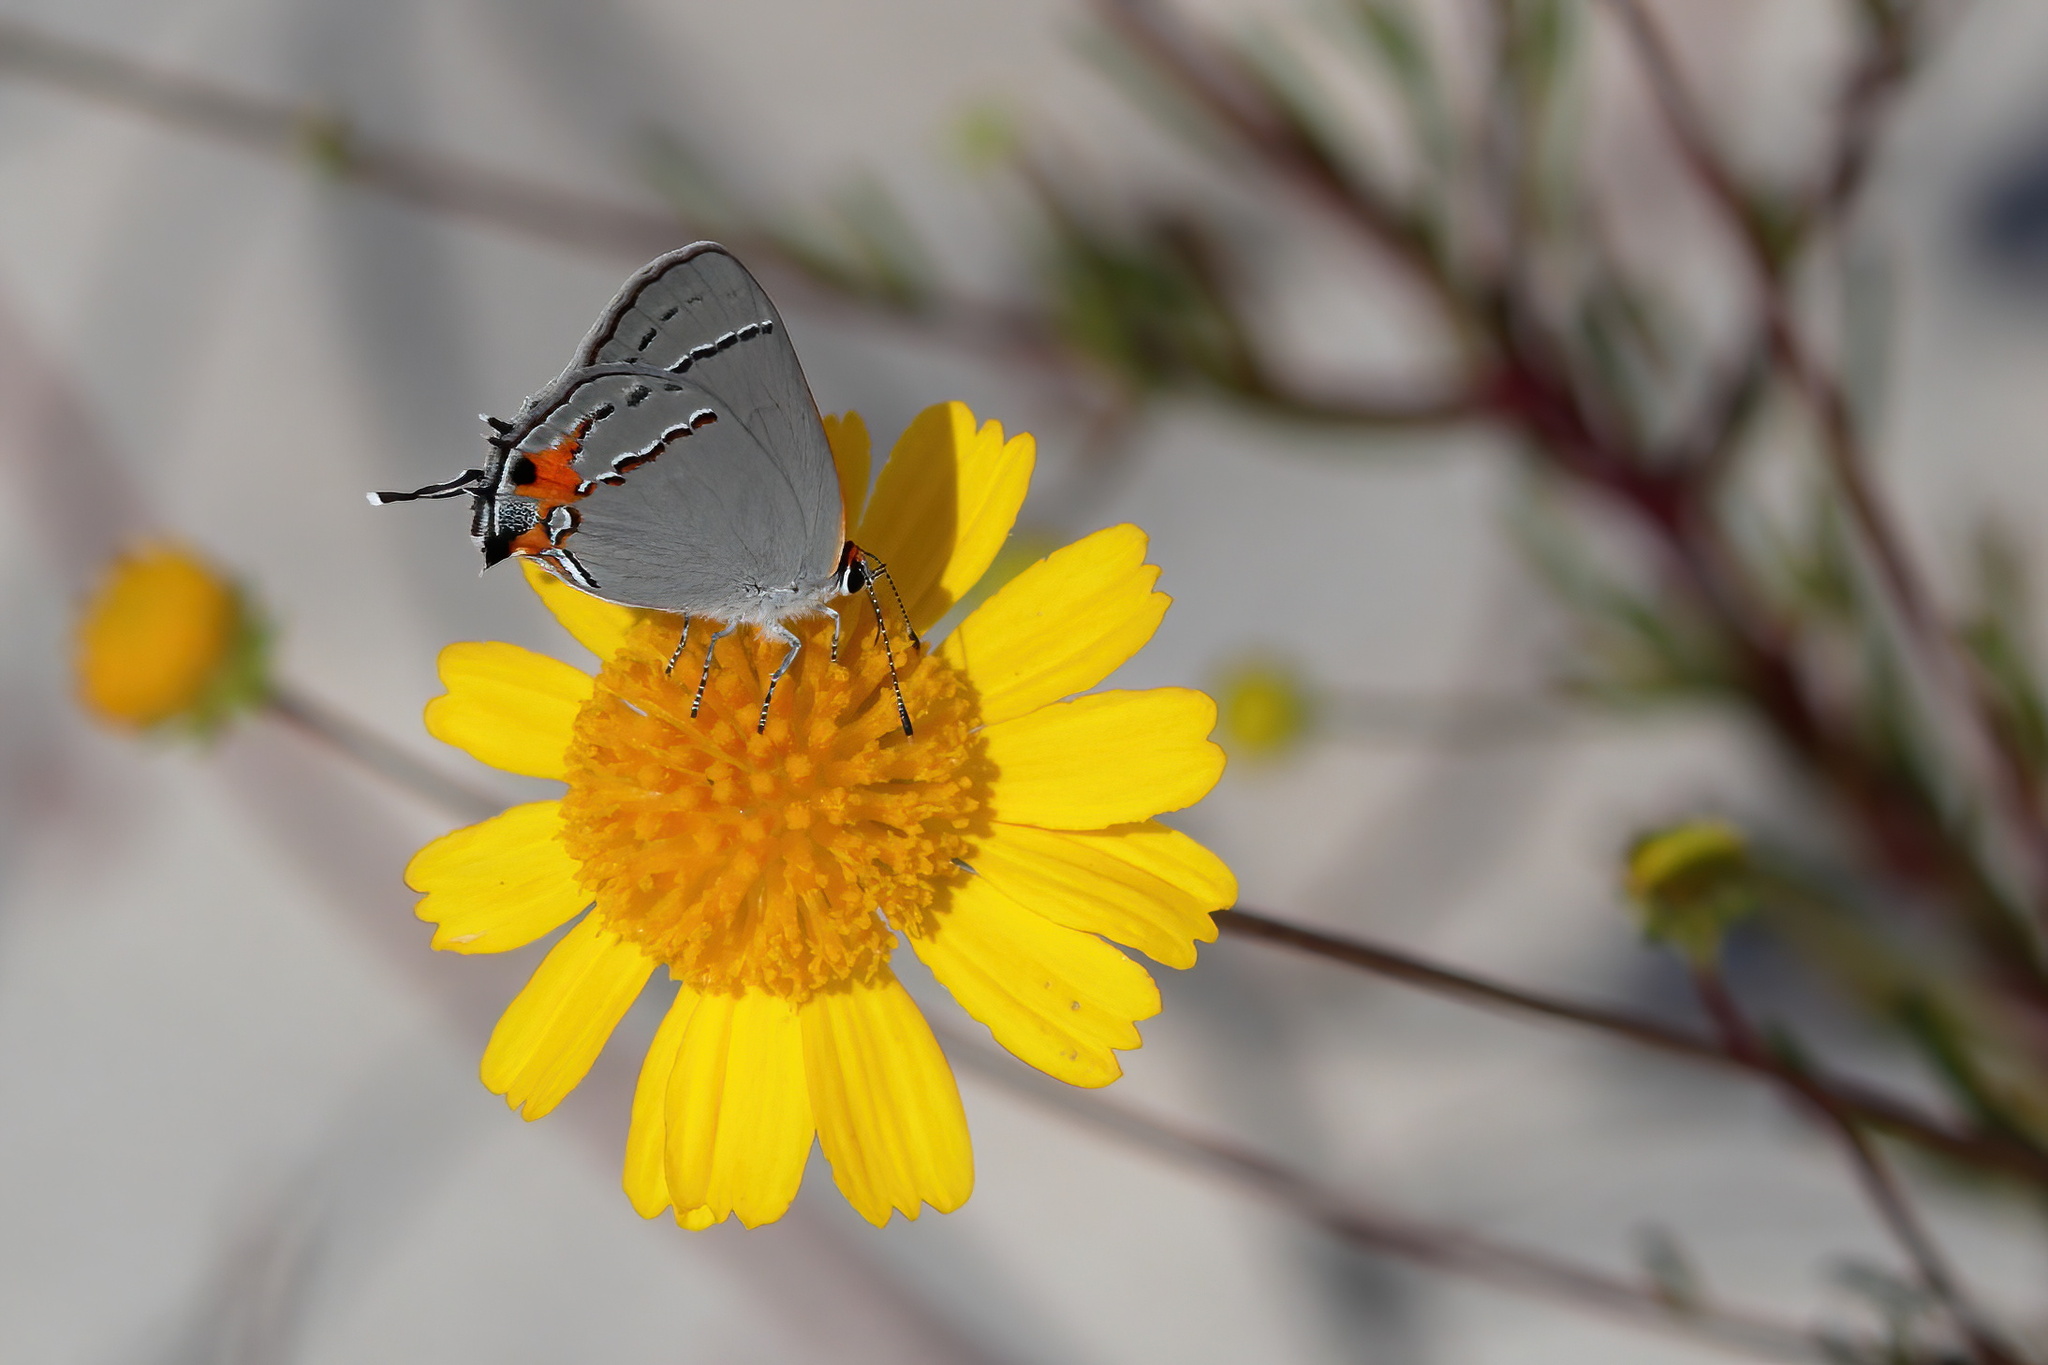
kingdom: Animalia
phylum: Arthropoda
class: Insecta
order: Lepidoptera
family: Lycaenidae
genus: Strymon
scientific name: Strymon melinus
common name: Gray hairstreak
